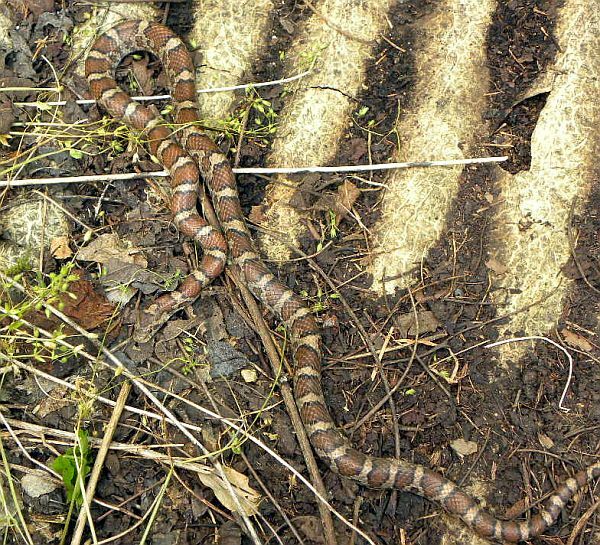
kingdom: Animalia
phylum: Chordata
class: Squamata
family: Colubridae
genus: Lampropeltis
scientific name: Lampropeltis triangulum
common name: Eastern milksnake
